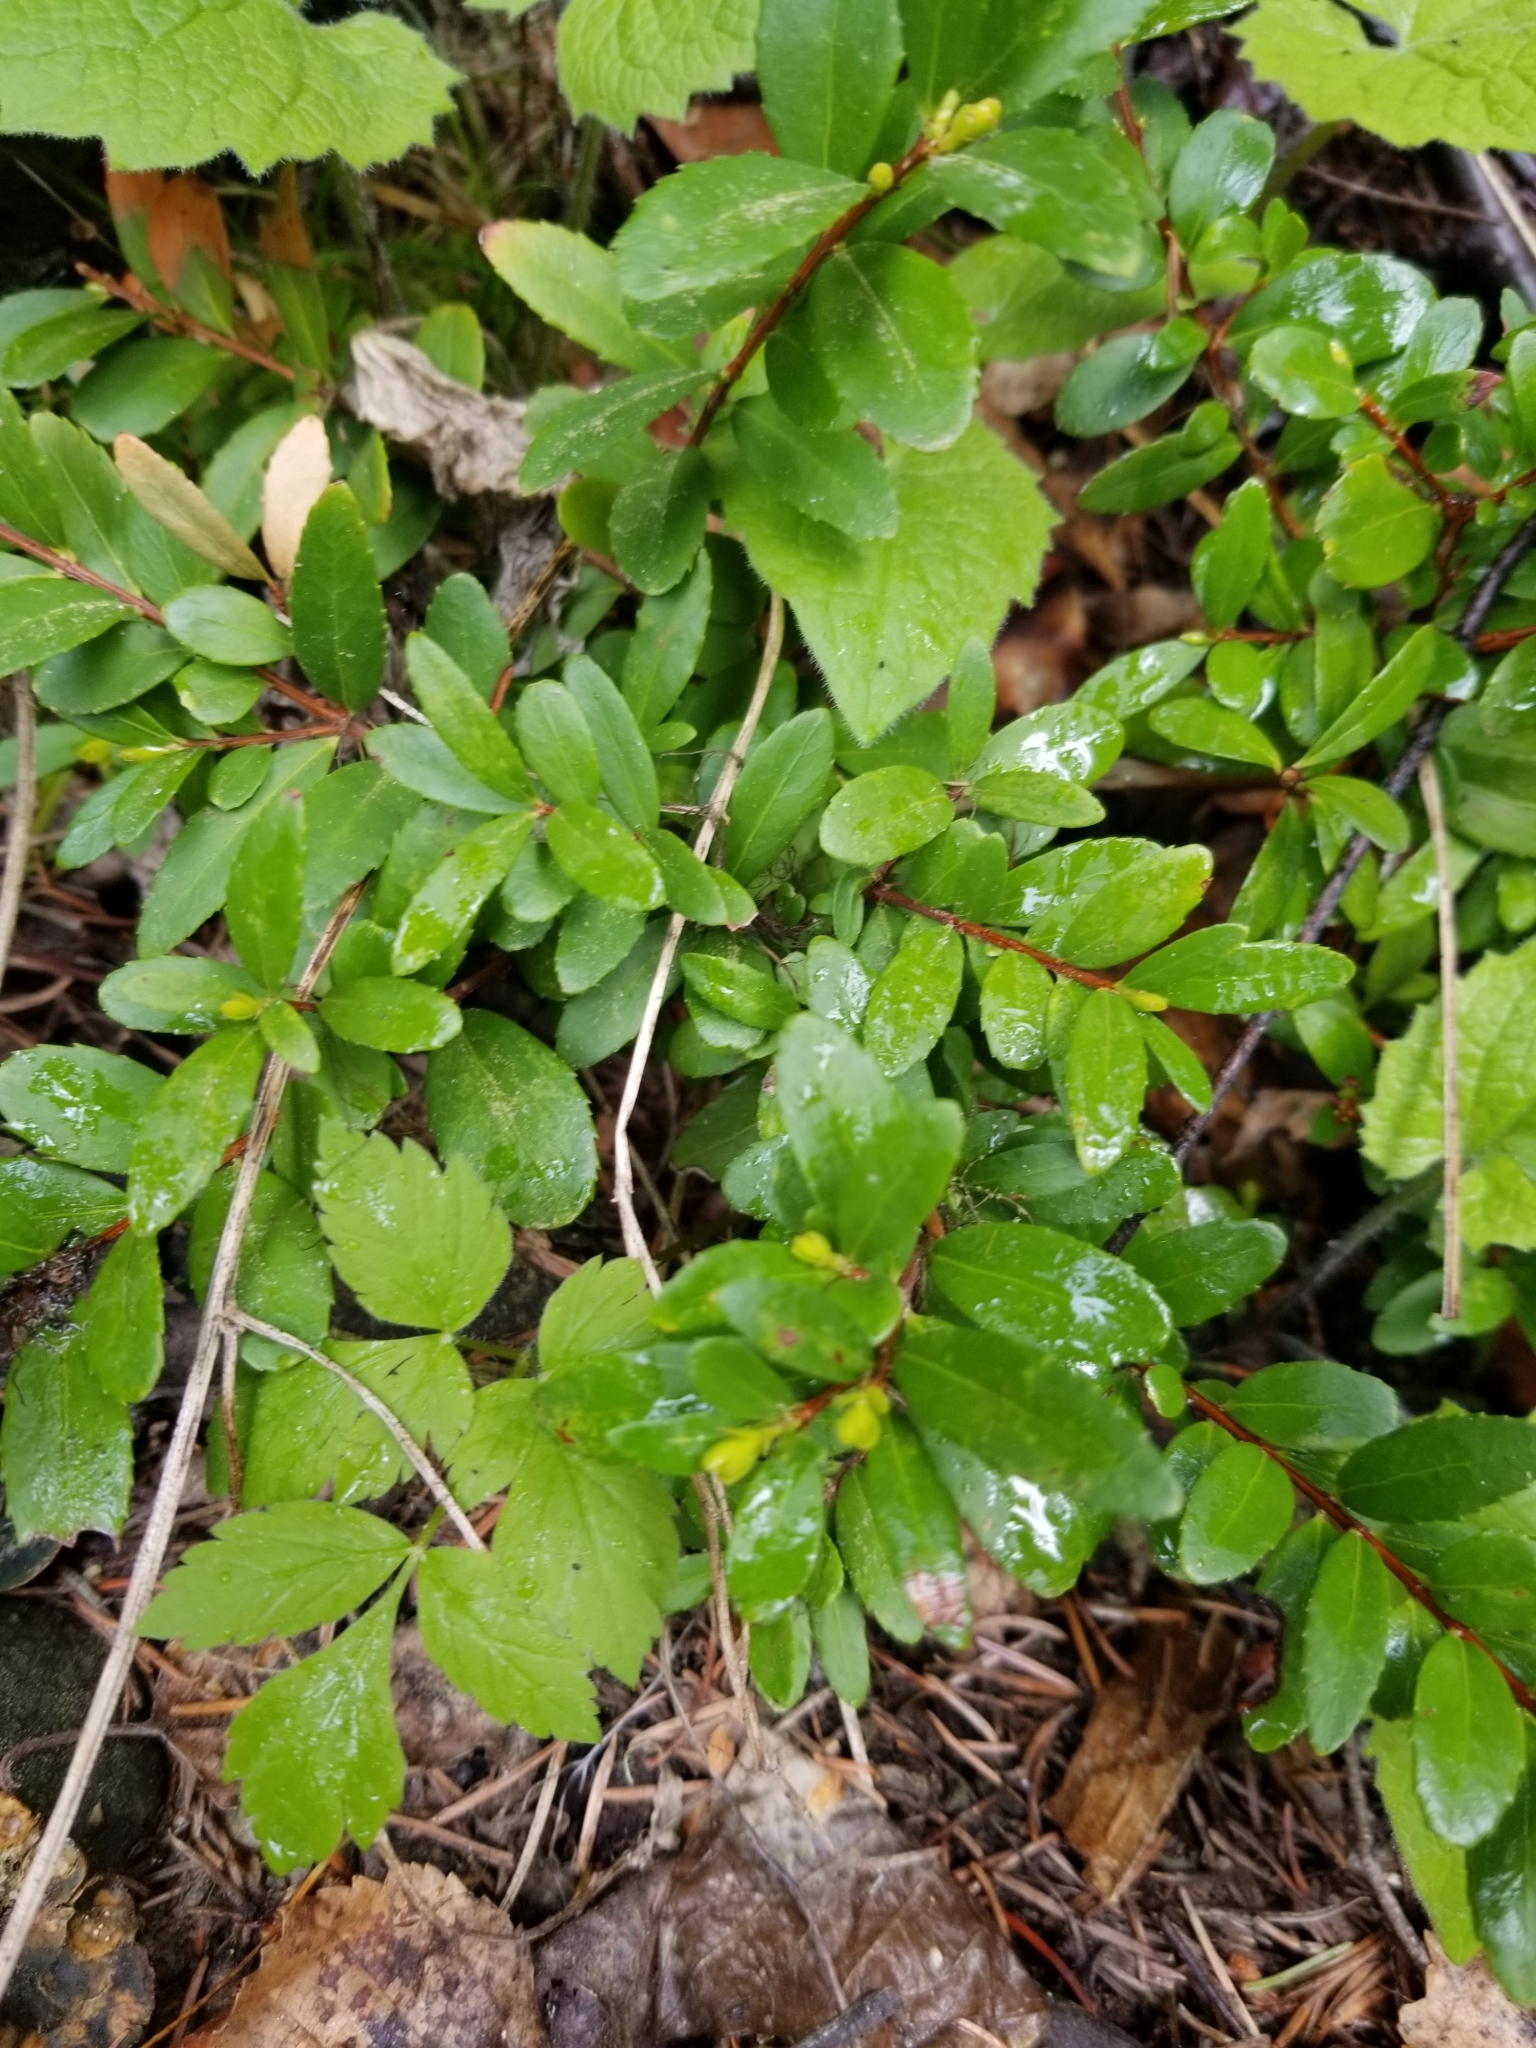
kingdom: Plantae
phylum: Tracheophyta
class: Magnoliopsida
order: Celastrales
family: Celastraceae
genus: Paxistima
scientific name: Paxistima myrsinites
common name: Mountain-lover
